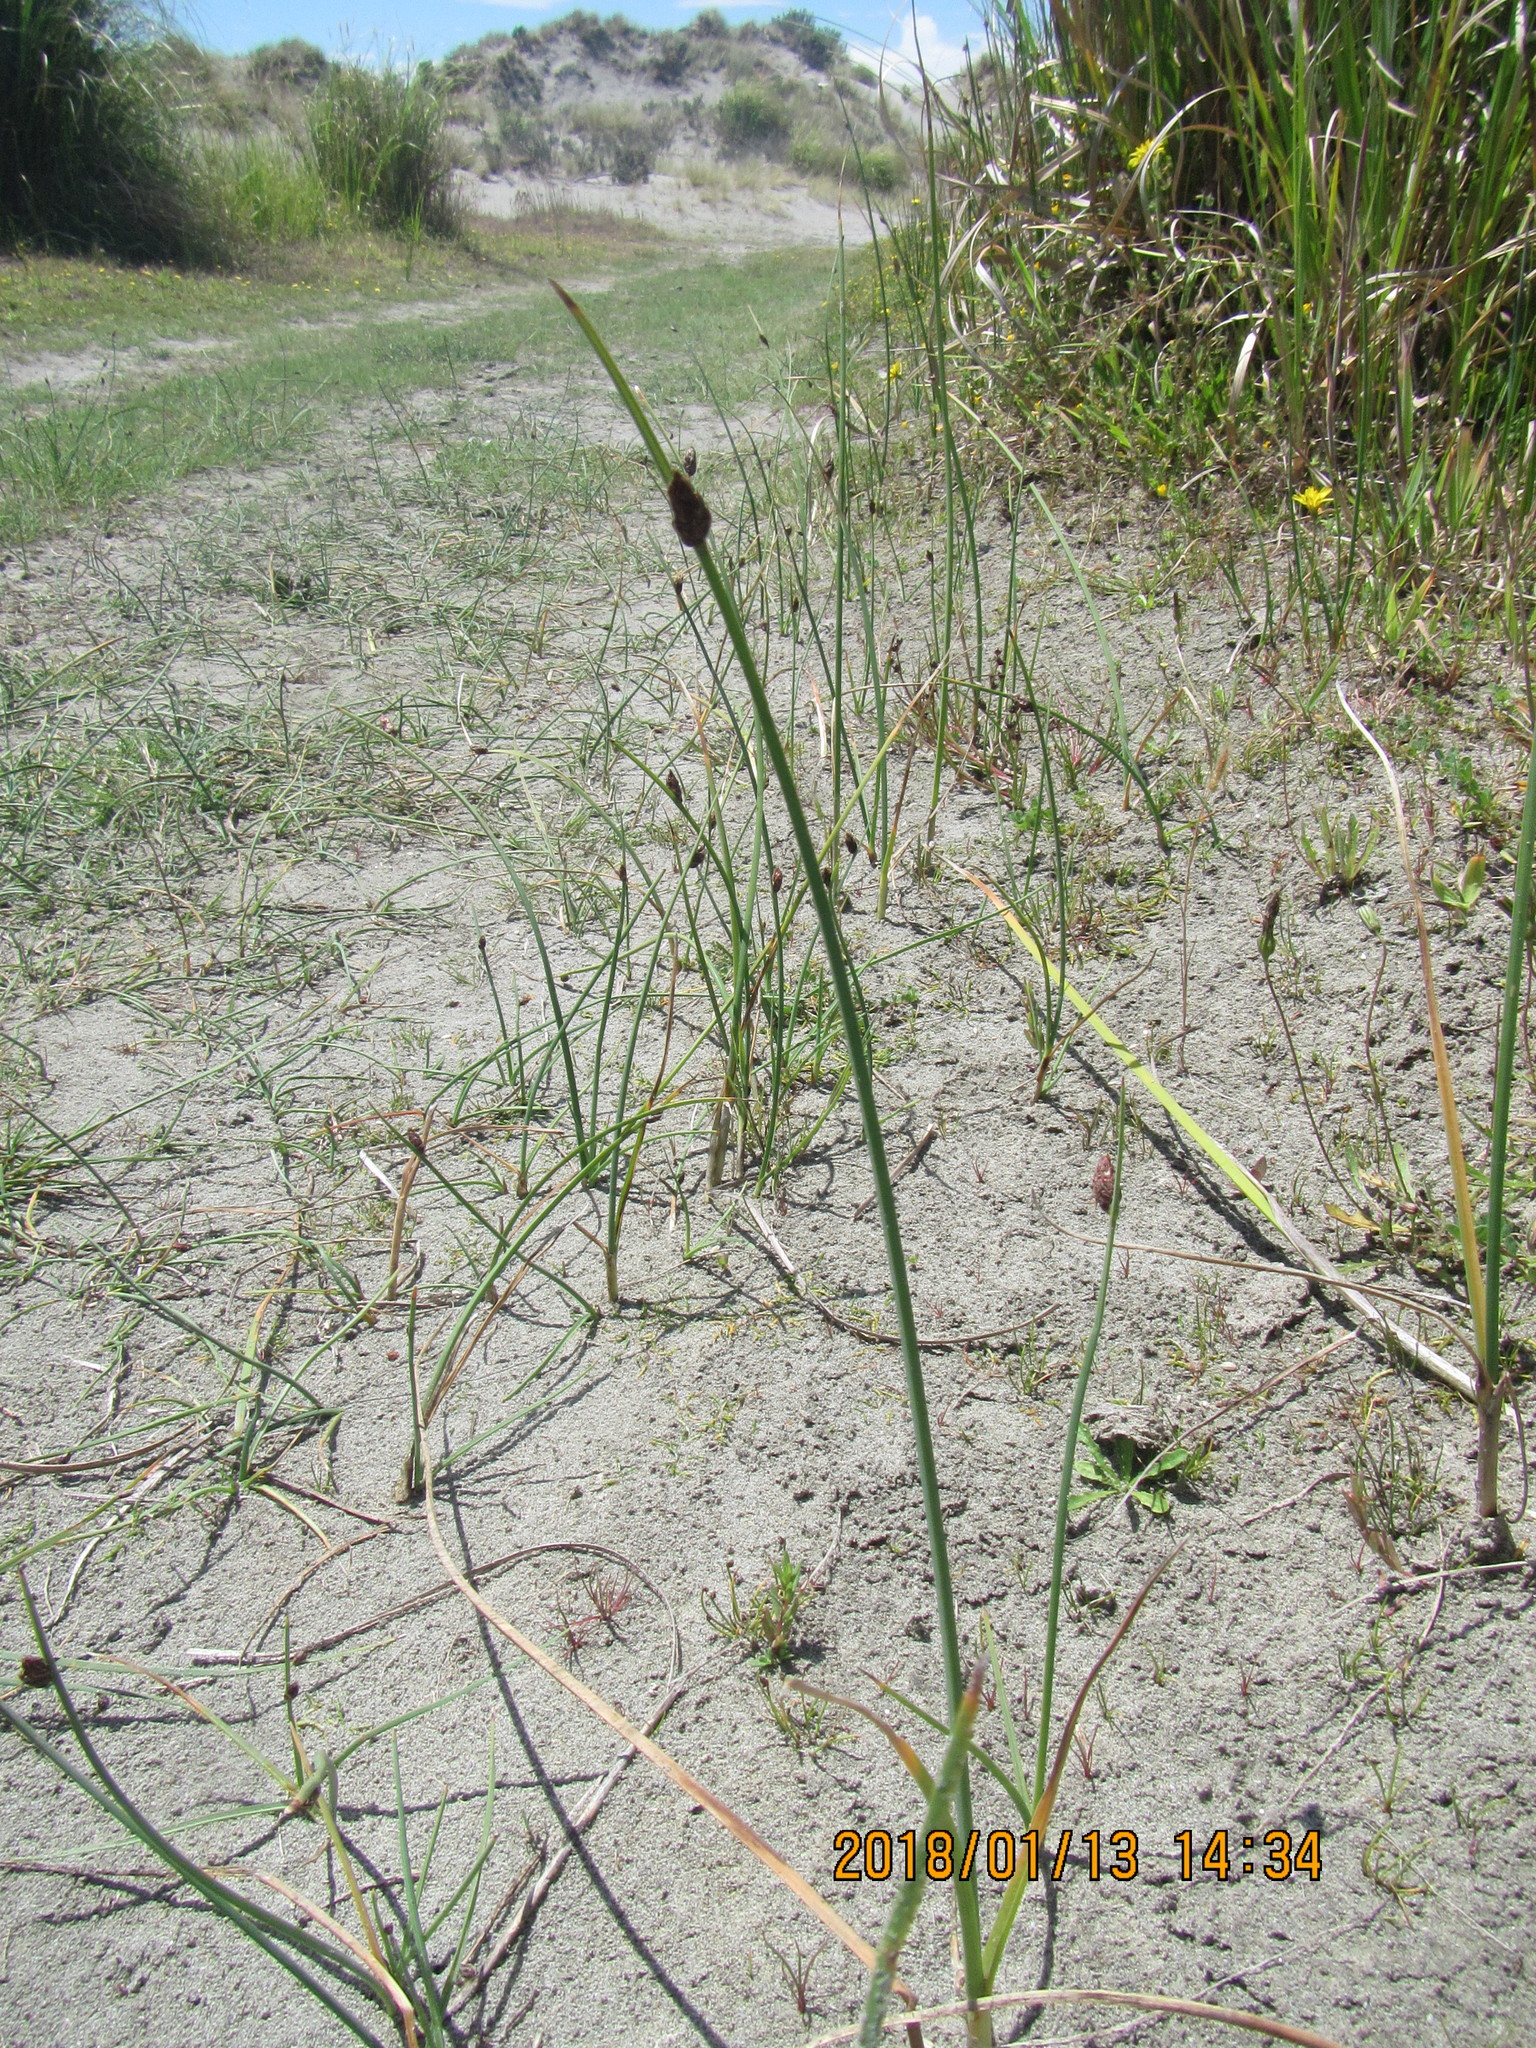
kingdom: Plantae
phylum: Tracheophyta
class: Liliopsida
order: Poales
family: Cyperaceae
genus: Schoenoplectus
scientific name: Schoenoplectus pungens
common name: Sharp club-rush
